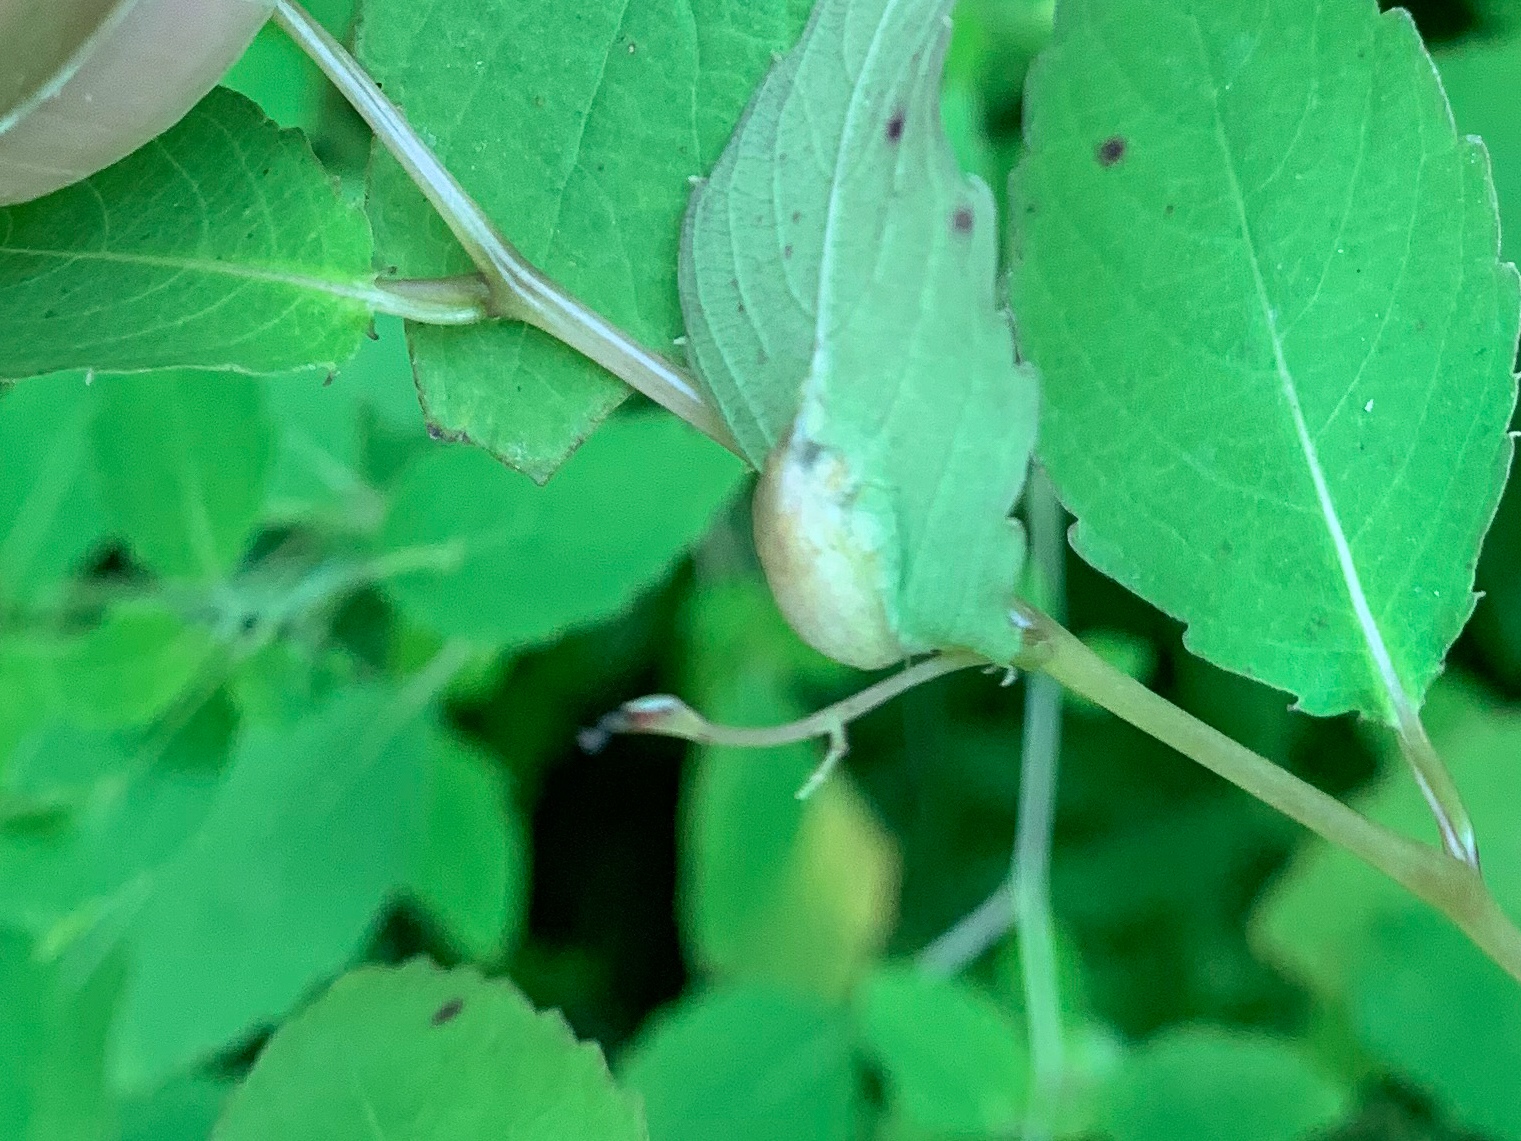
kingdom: Animalia
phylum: Arthropoda
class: Insecta
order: Diptera
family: Cecidomyiidae
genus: Neolasioptera
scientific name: Neolasioptera impatientifolia
